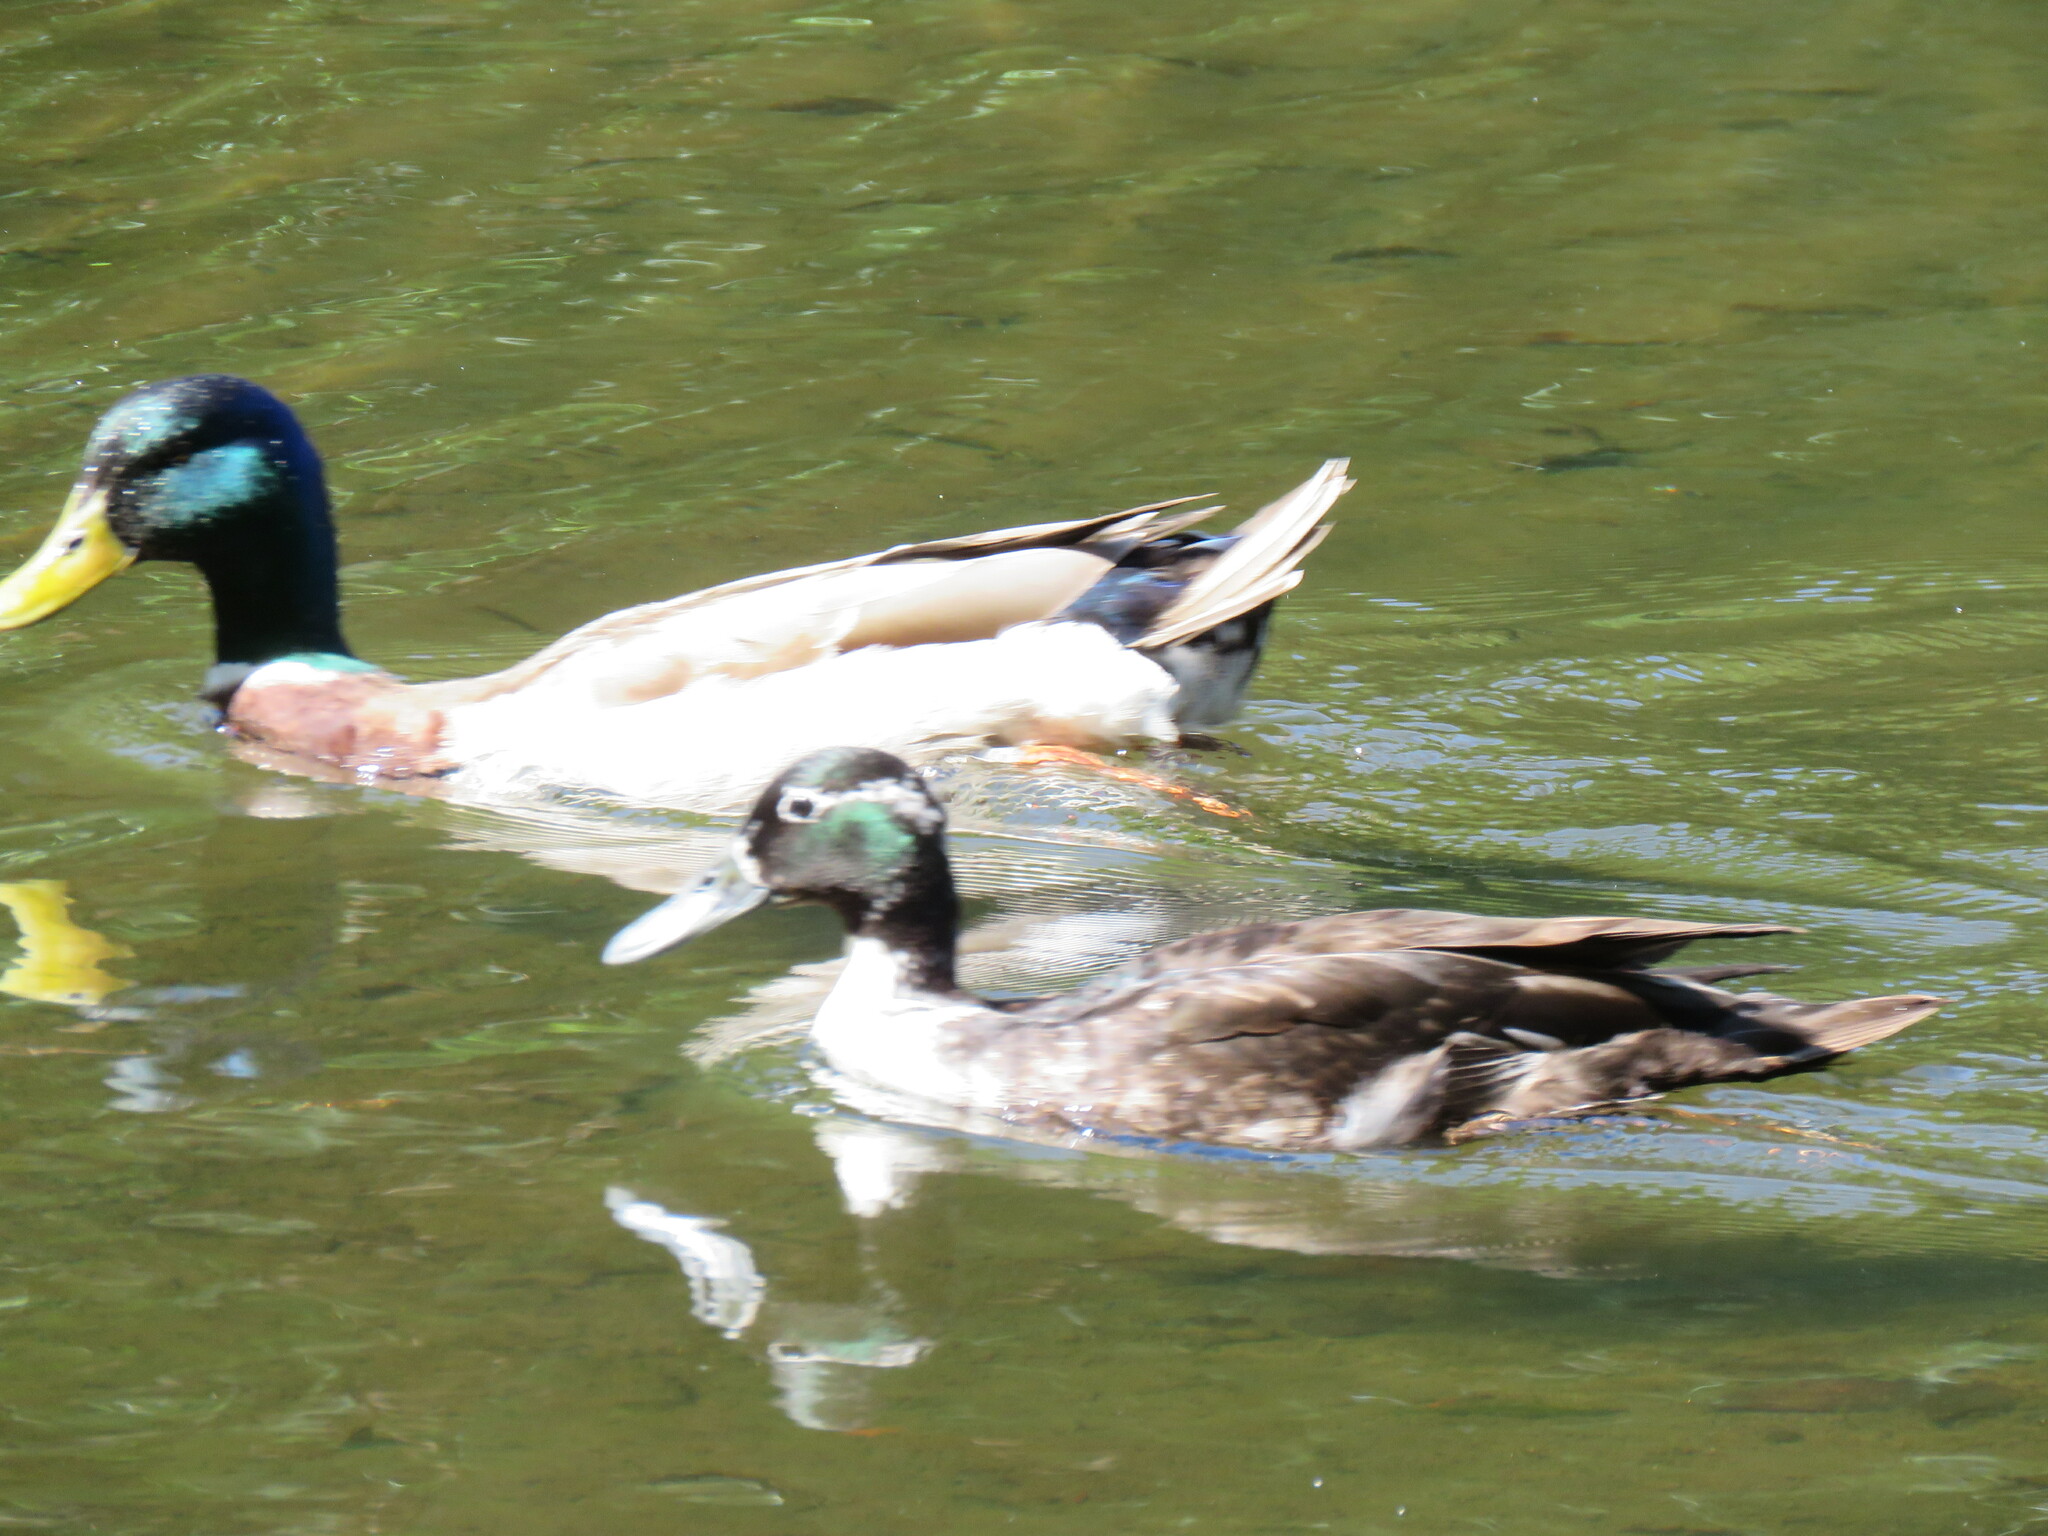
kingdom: Animalia
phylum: Chordata
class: Aves
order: Anseriformes
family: Anatidae
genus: Anas
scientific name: Anas platyrhynchos
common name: Mallard
